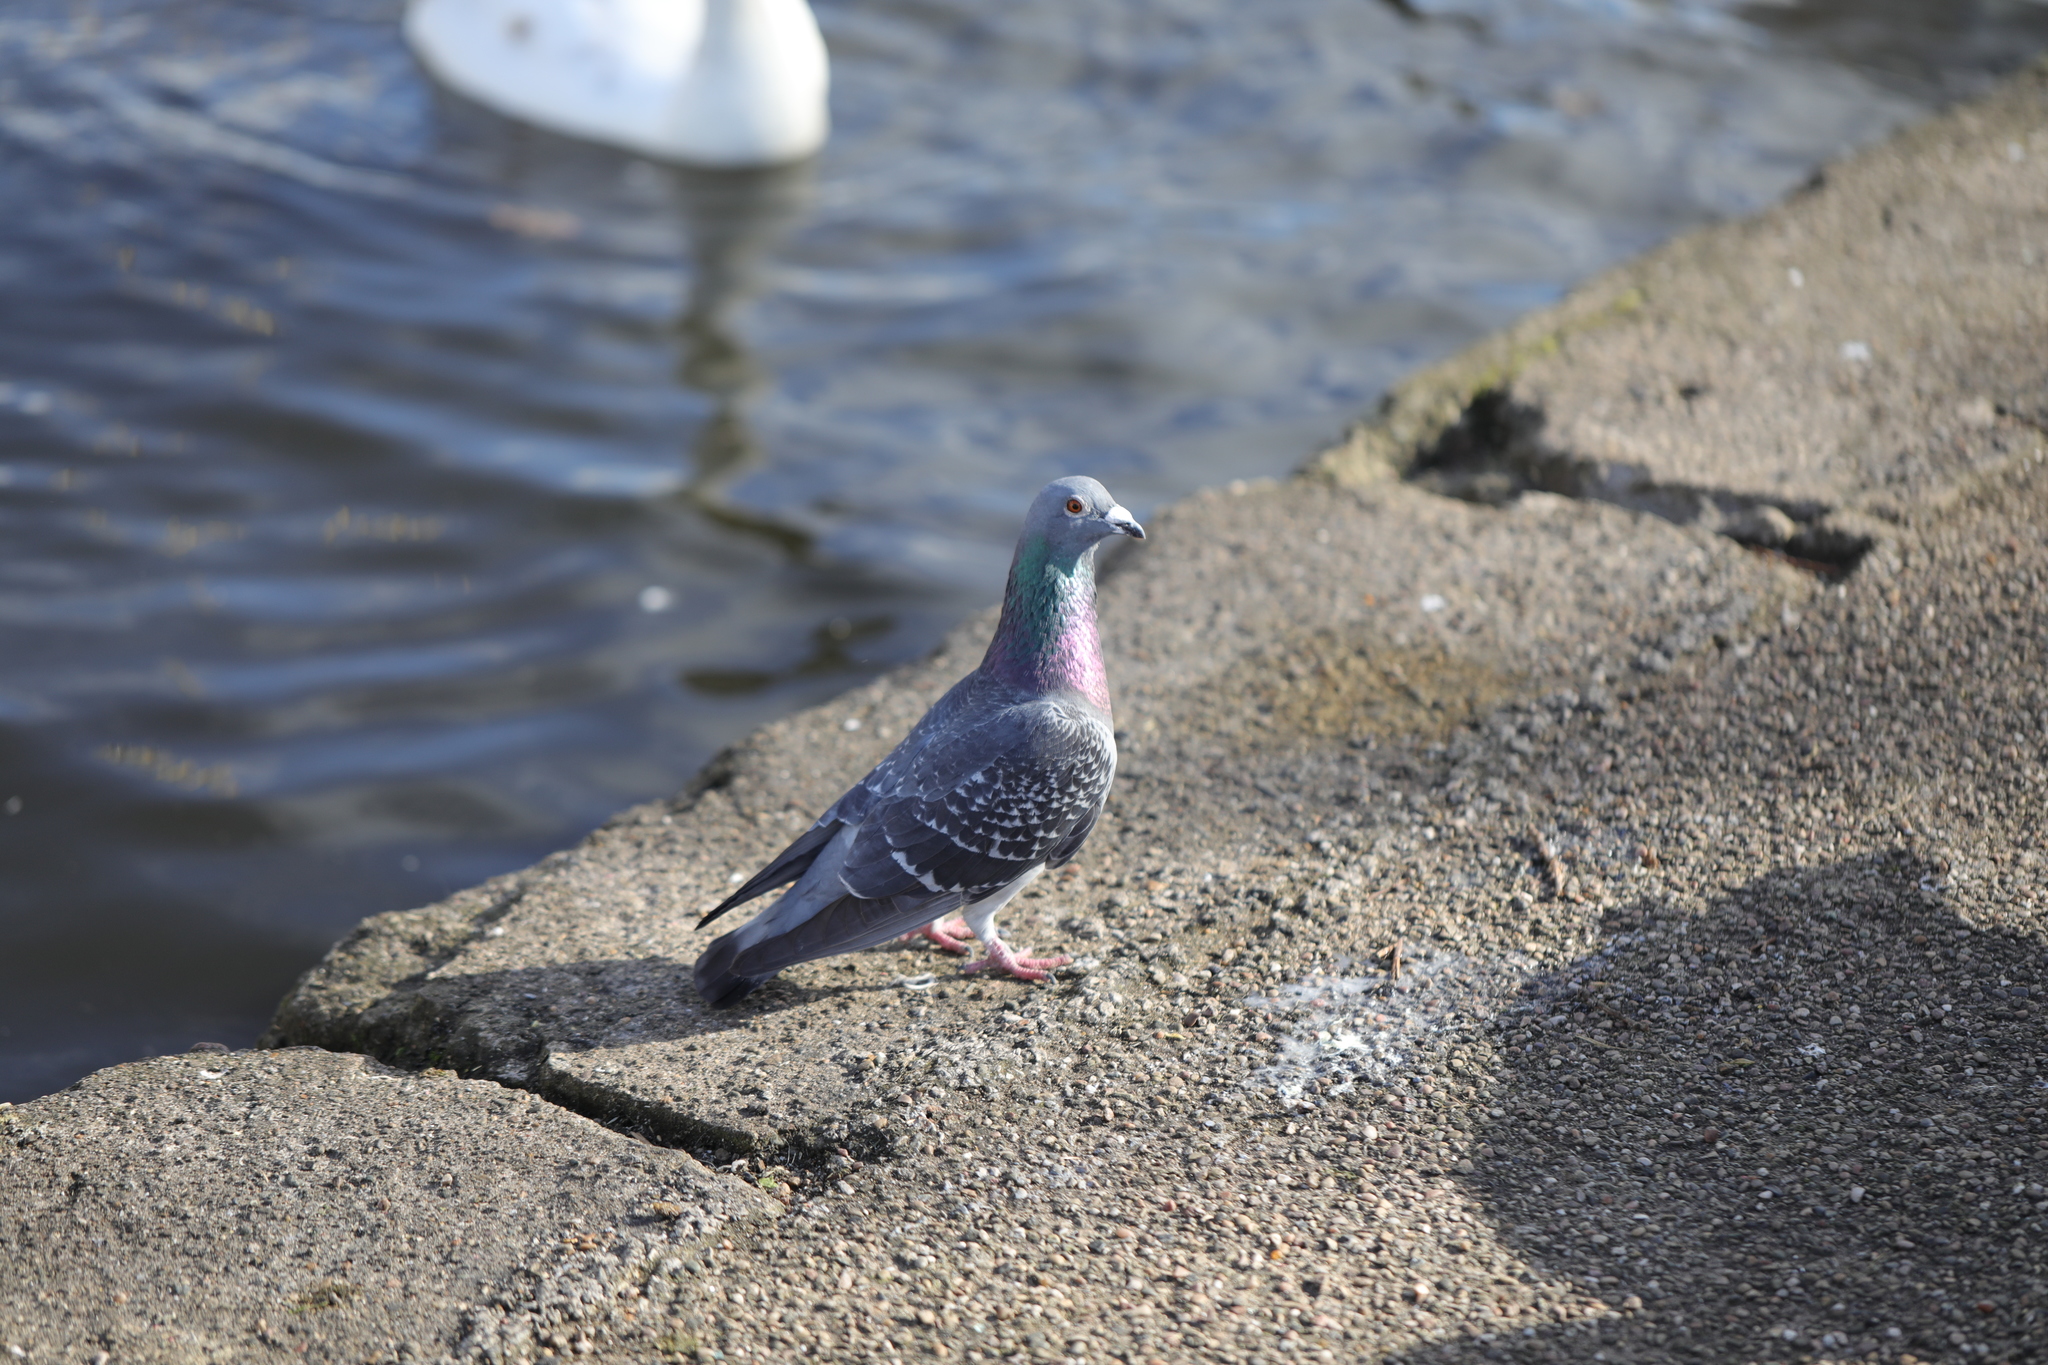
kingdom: Animalia
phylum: Chordata
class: Aves
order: Columbiformes
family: Columbidae
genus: Columba
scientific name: Columba livia
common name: Rock pigeon
